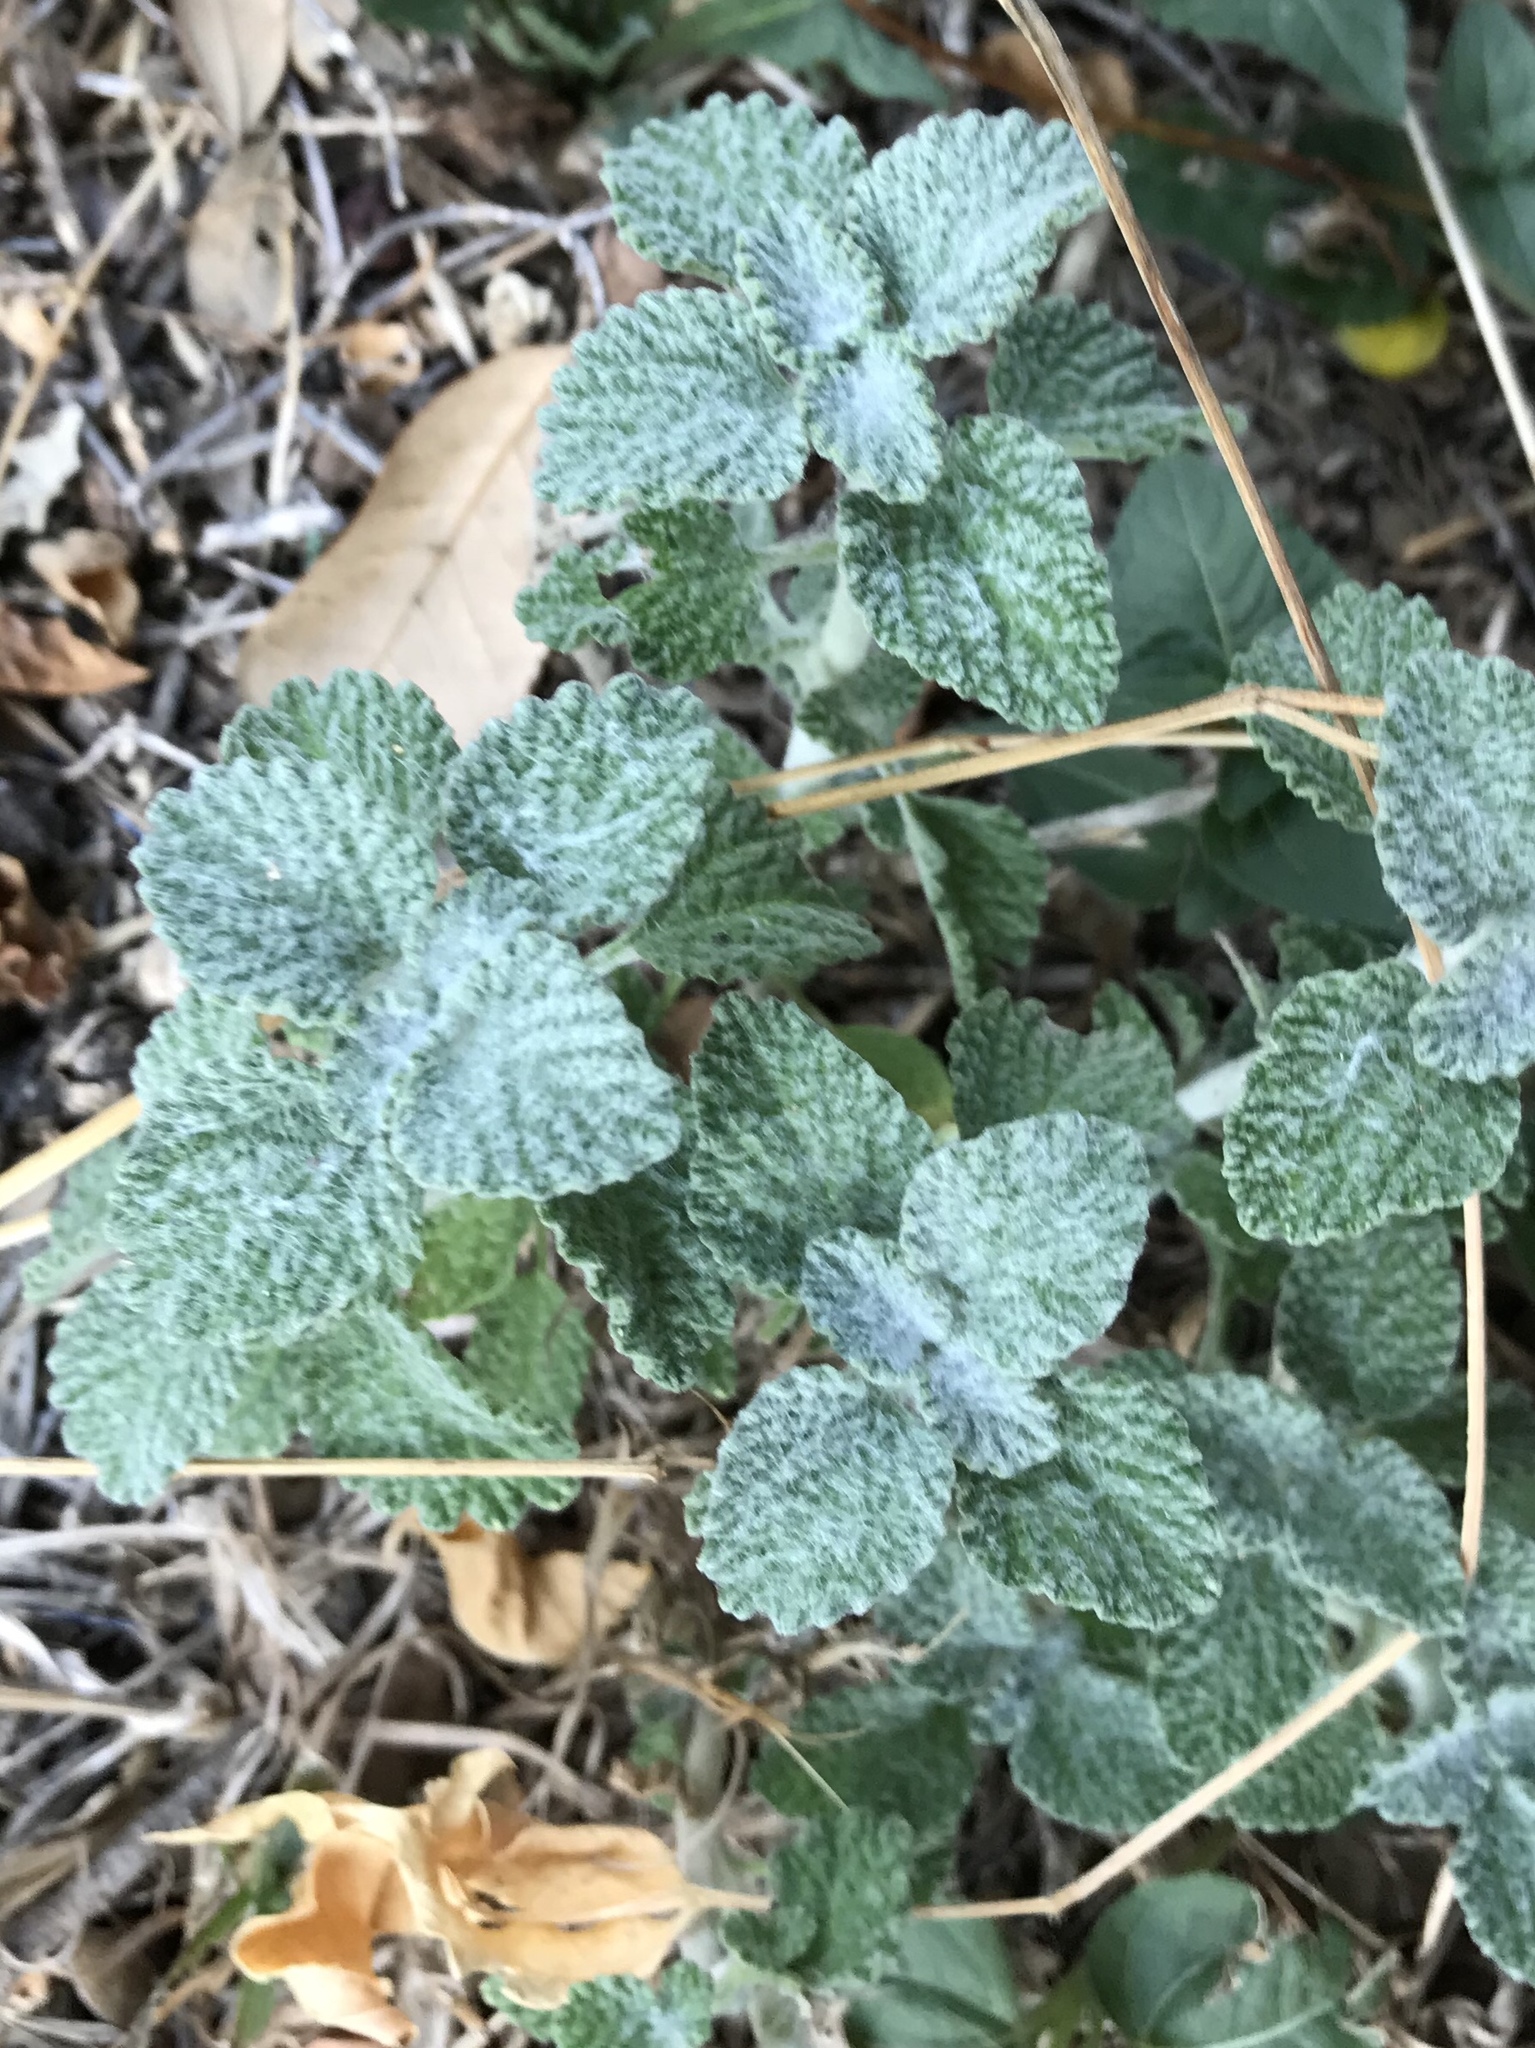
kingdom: Plantae
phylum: Tracheophyta
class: Magnoliopsida
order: Lamiales
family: Lamiaceae
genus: Marrubium
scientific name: Marrubium vulgare
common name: Horehound
